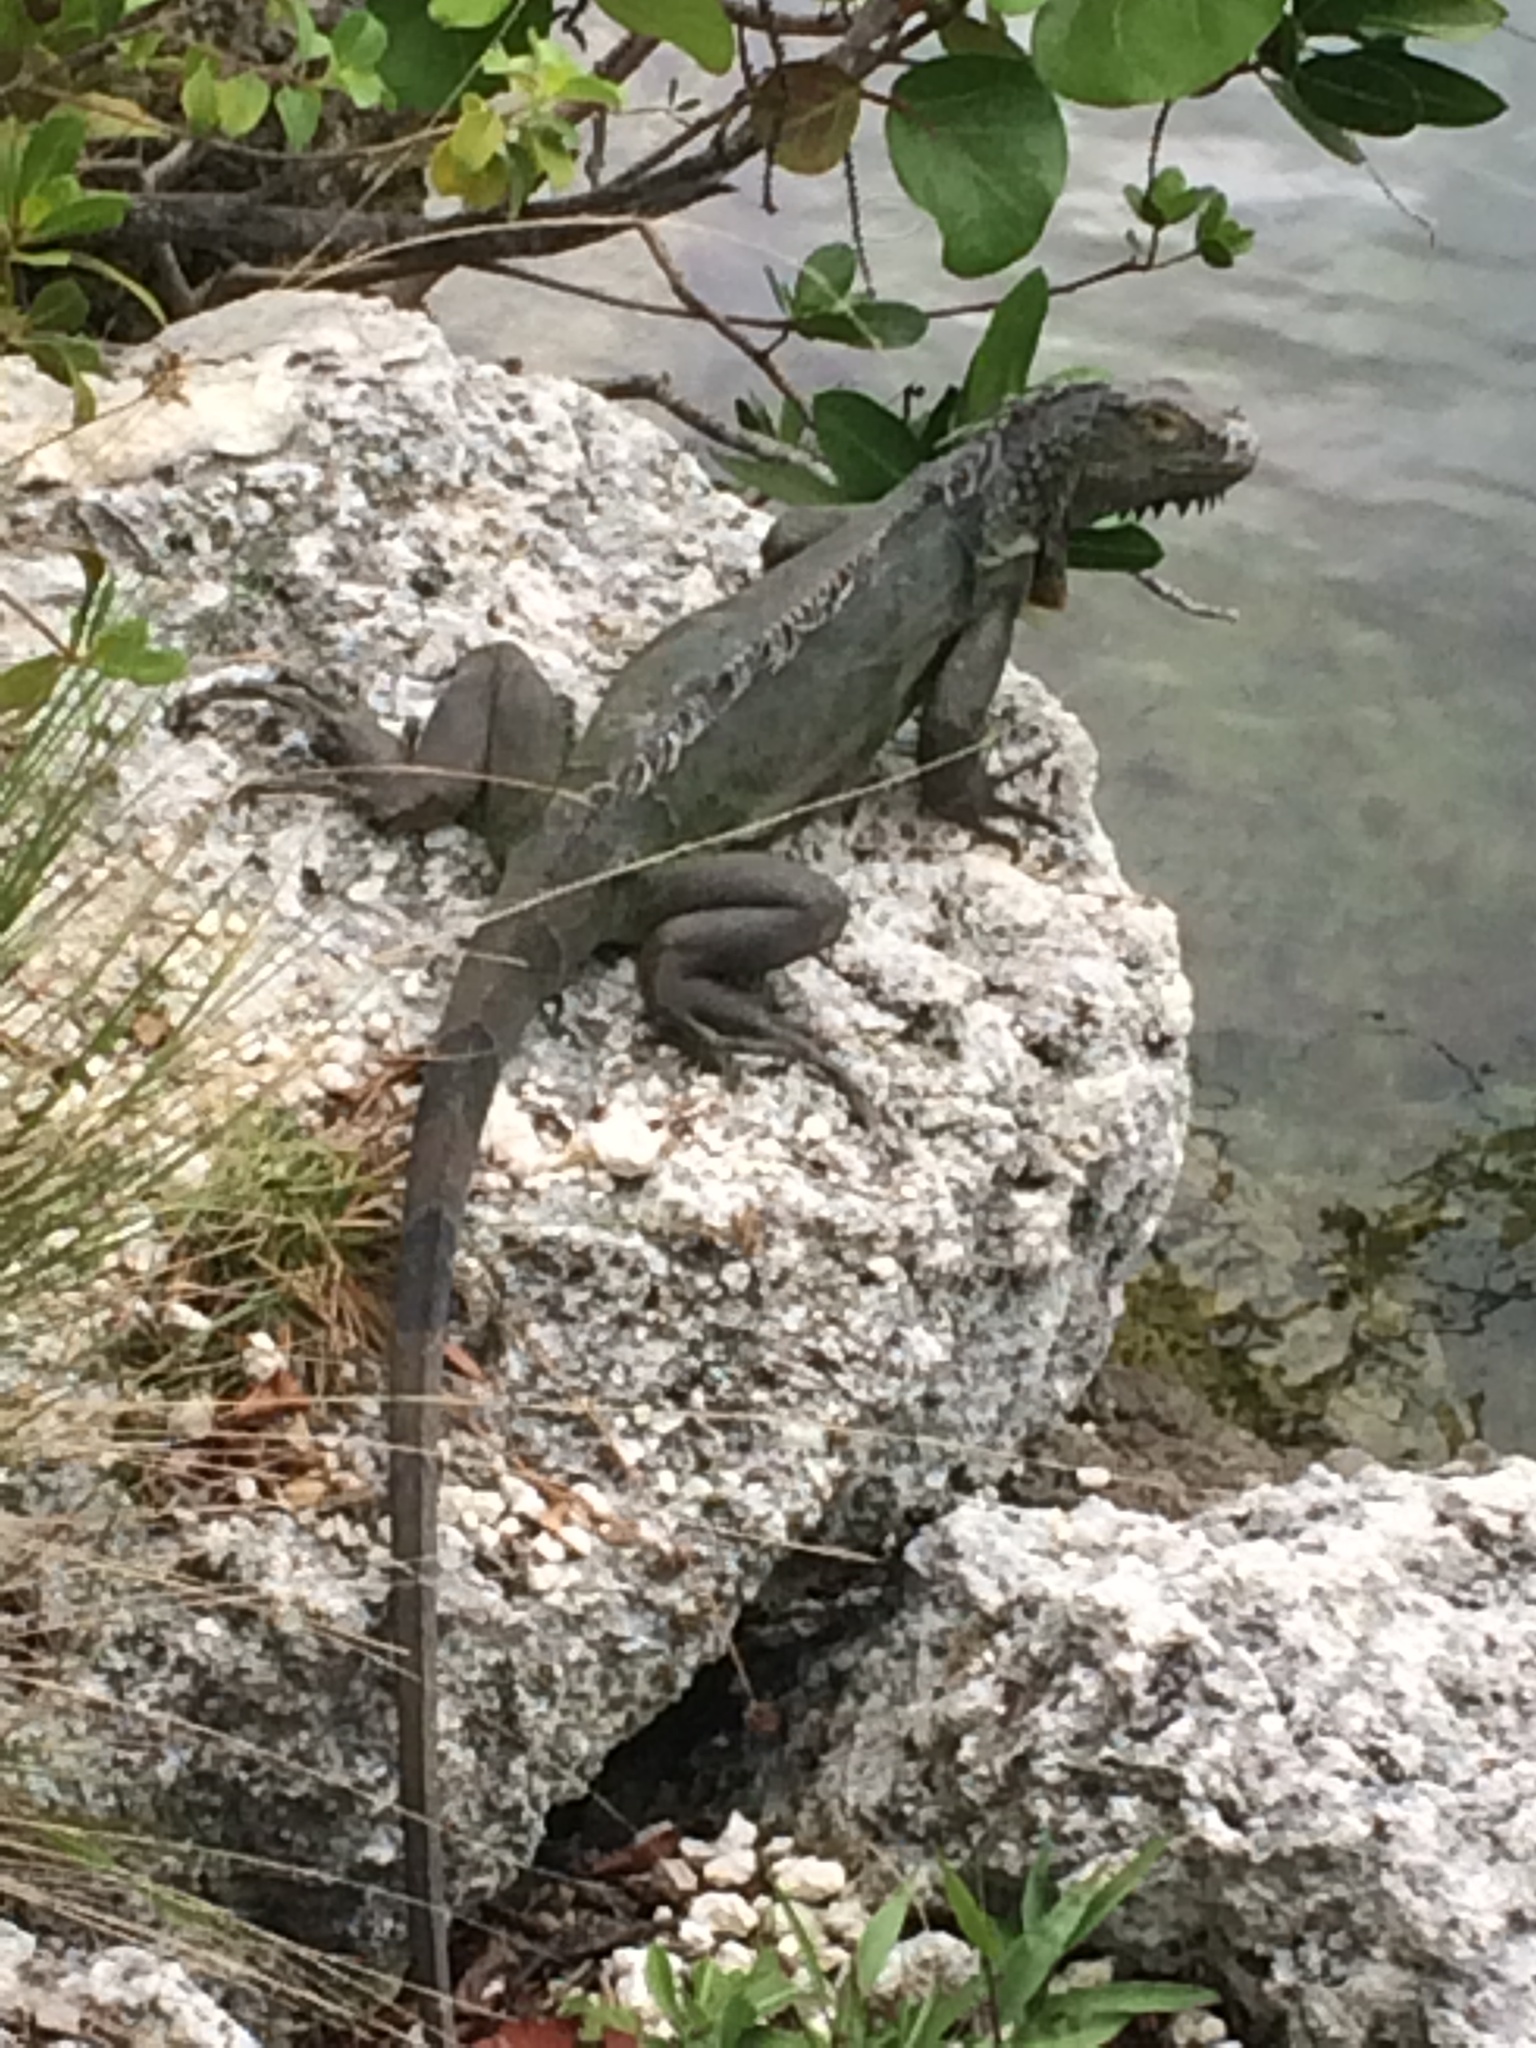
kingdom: Animalia
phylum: Chordata
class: Squamata
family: Iguanidae
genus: Iguana
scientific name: Iguana iguana
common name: Green iguana
